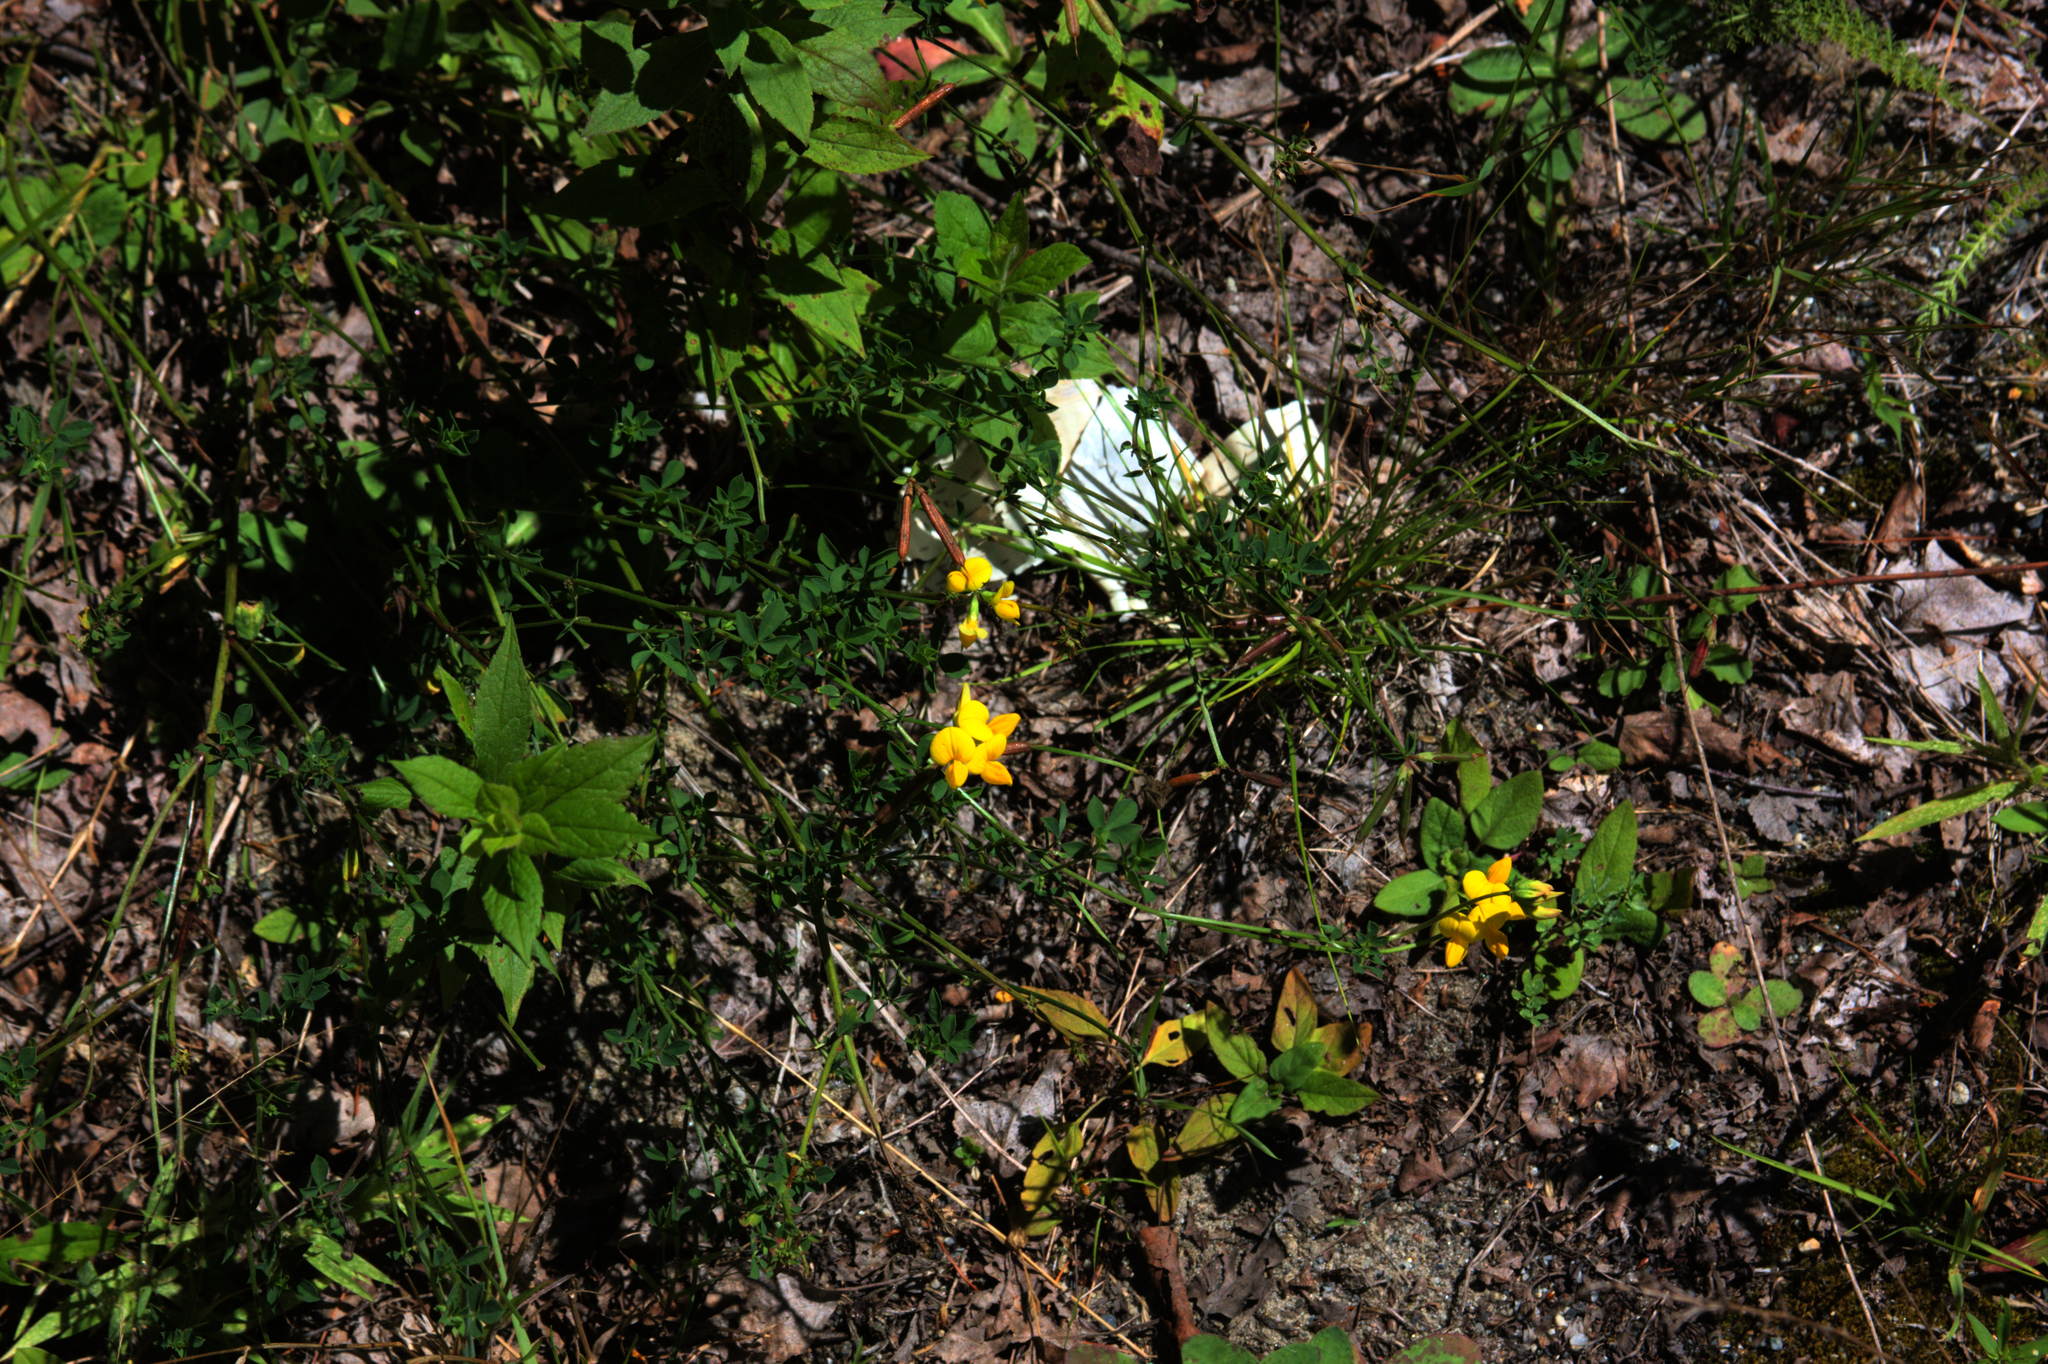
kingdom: Plantae
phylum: Tracheophyta
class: Magnoliopsida
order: Fabales
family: Fabaceae
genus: Lotus
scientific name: Lotus corniculatus
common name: Common bird's-foot-trefoil
